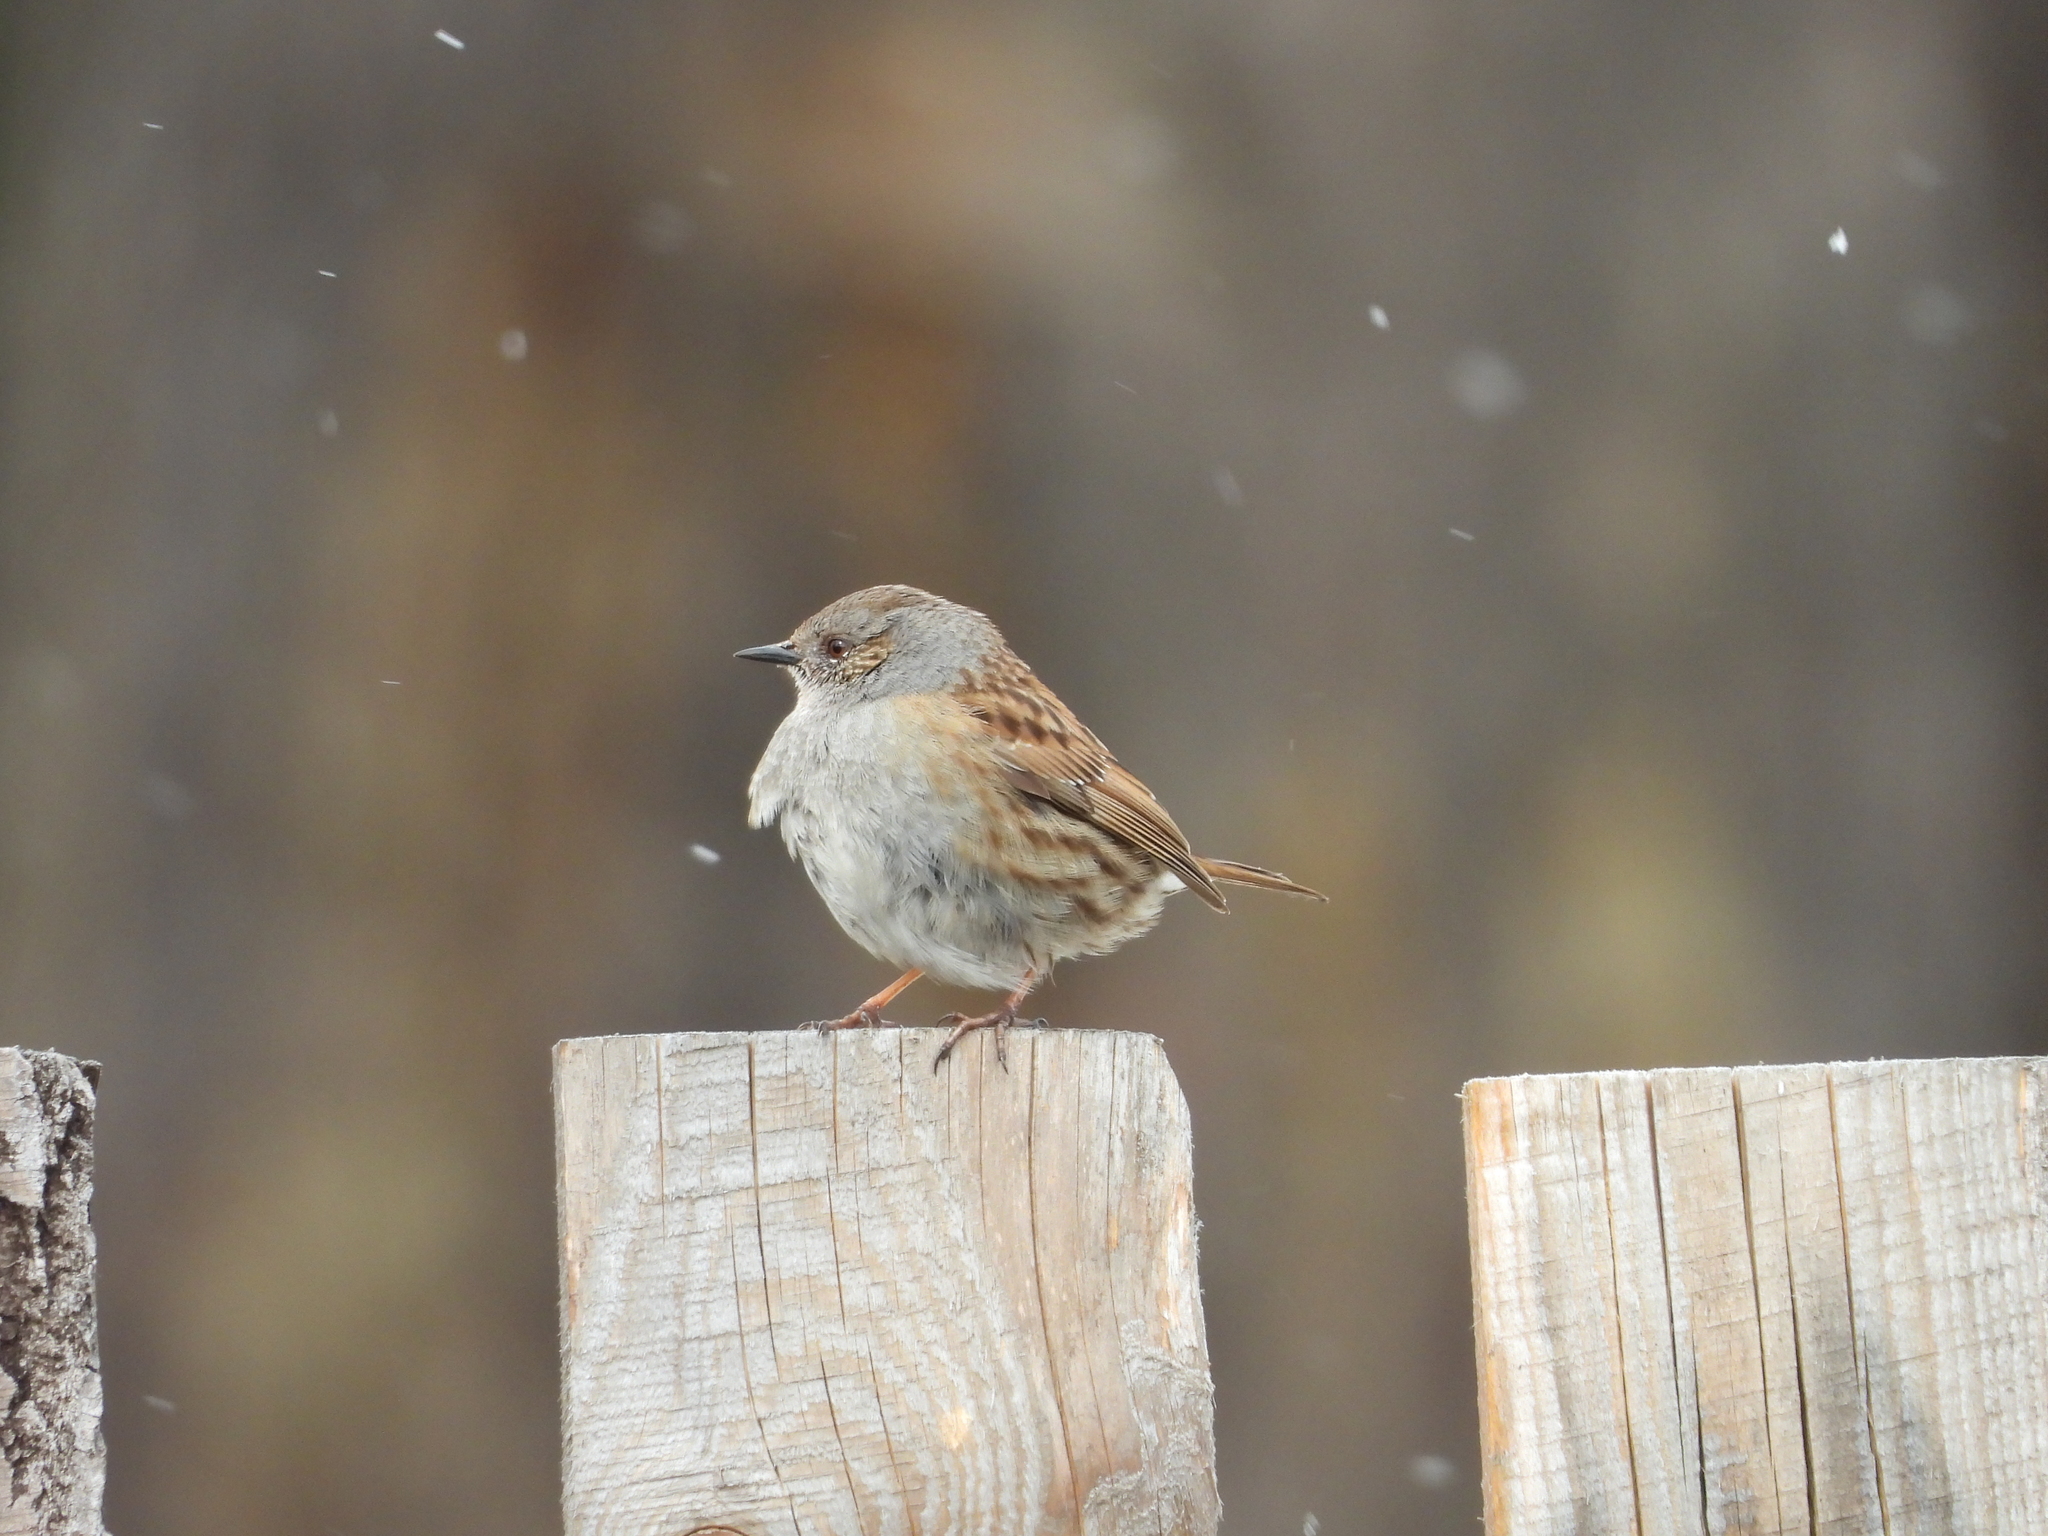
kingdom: Animalia
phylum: Chordata
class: Aves
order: Passeriformes
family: Prunellidae
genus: Prunella
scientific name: Prunella modularis
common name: Dunnock
